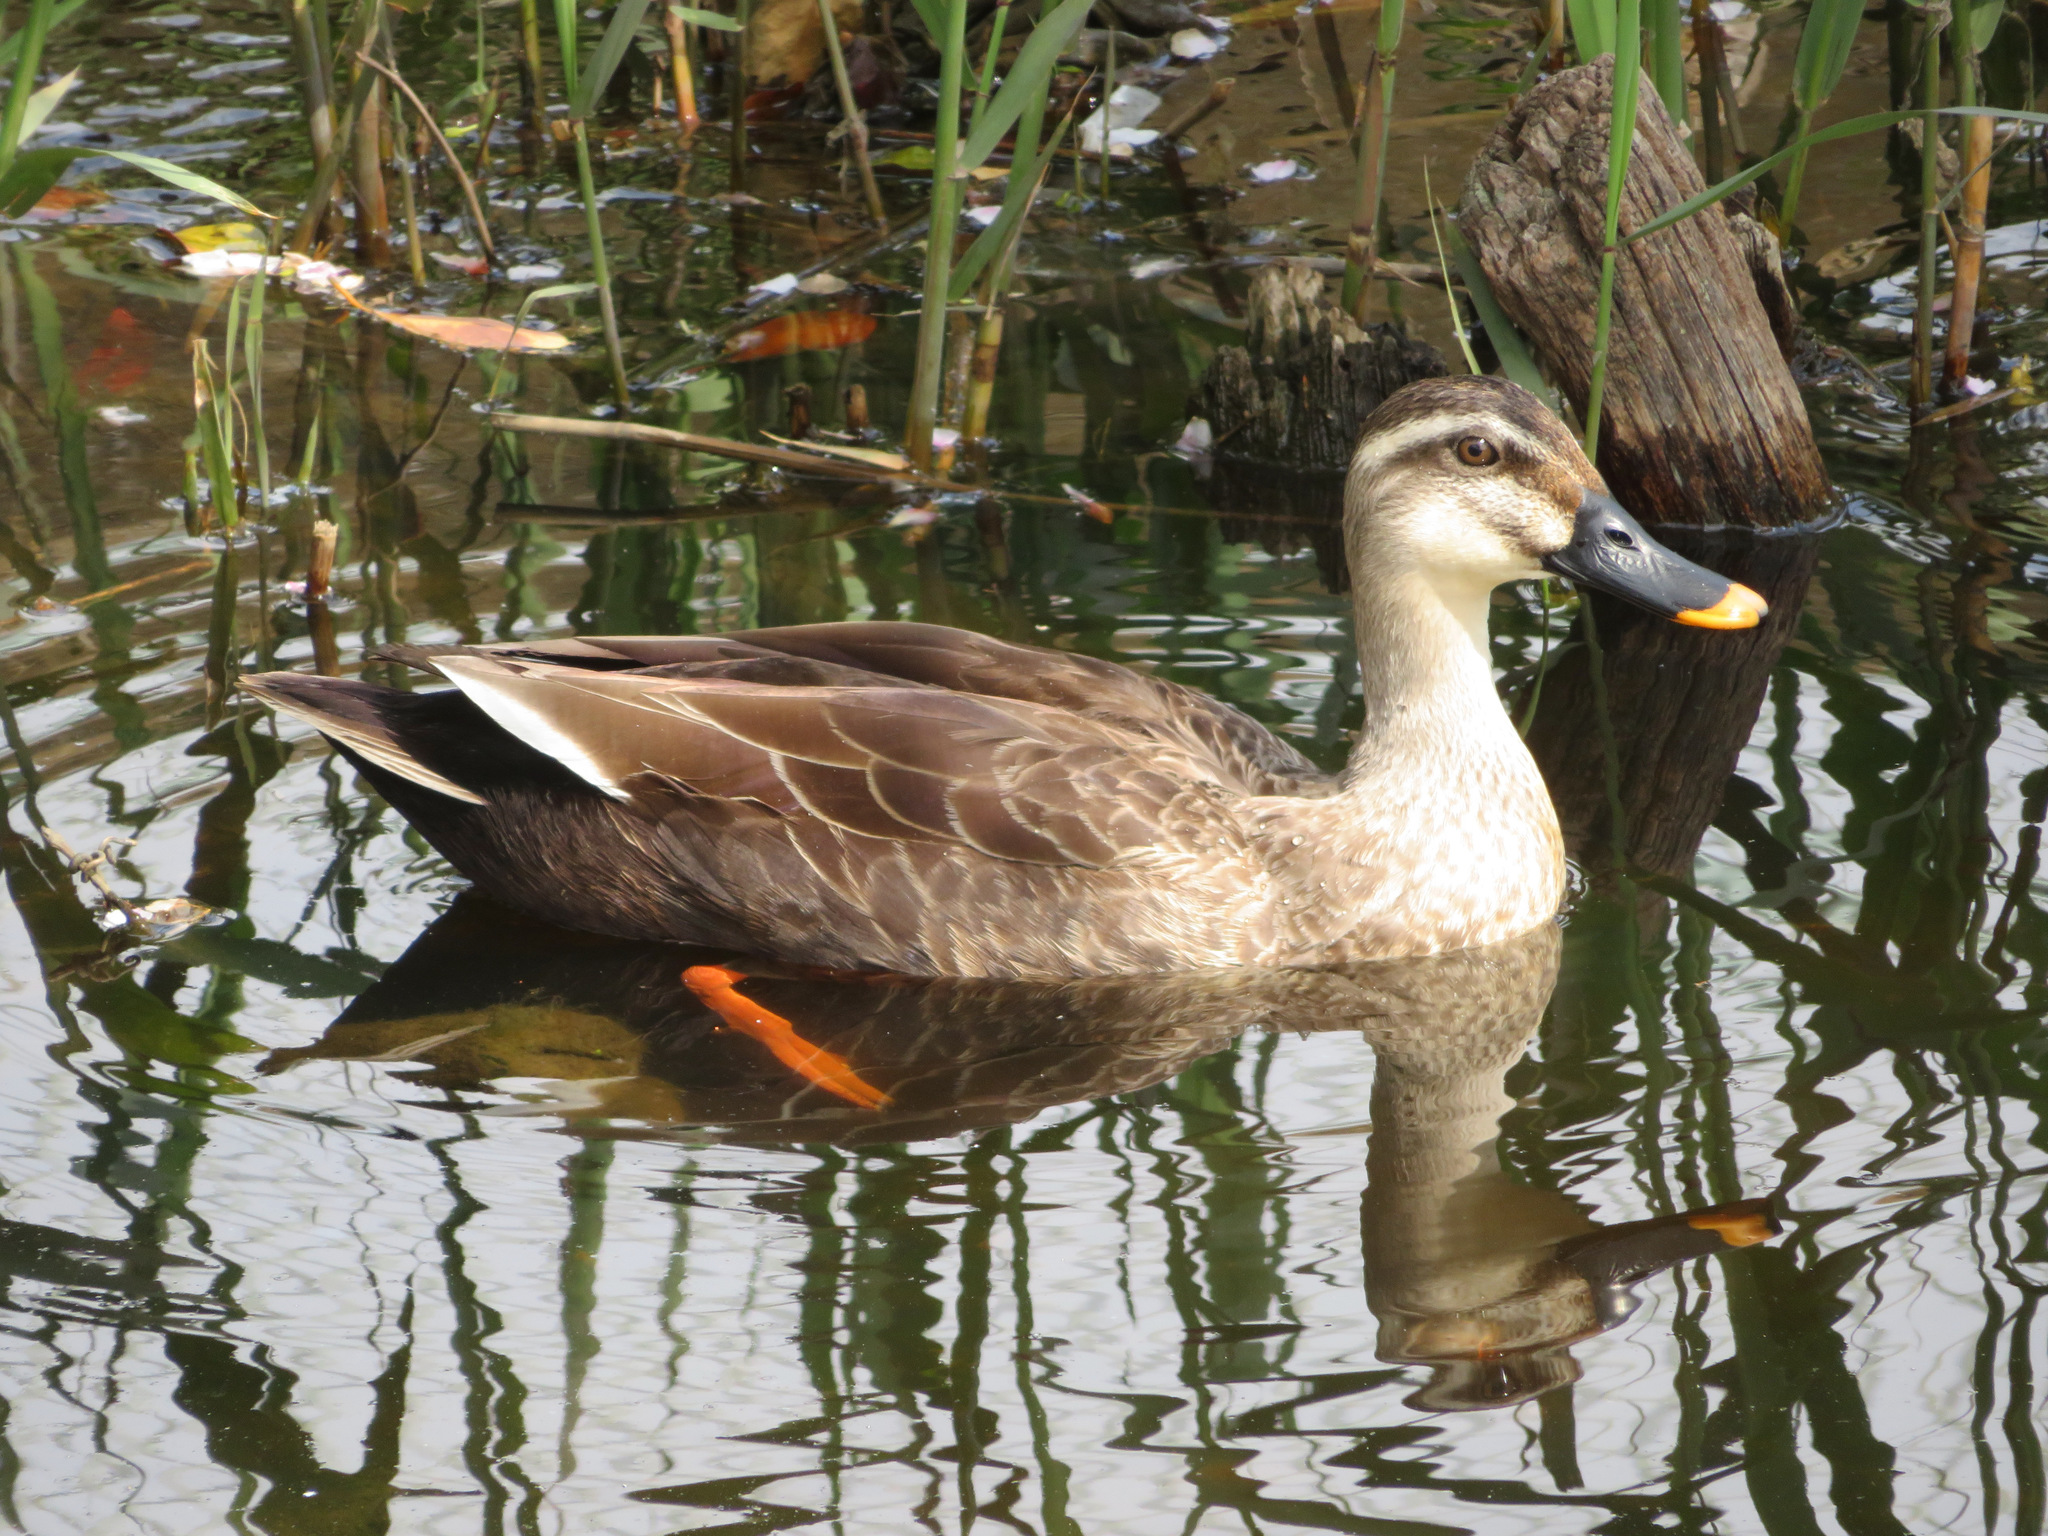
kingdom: Animalia
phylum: Chordata
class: Aves
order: Anseriformes
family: Anatidae
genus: Anas
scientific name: Anas zonorhyncha
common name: Eastern spot-billed duck
